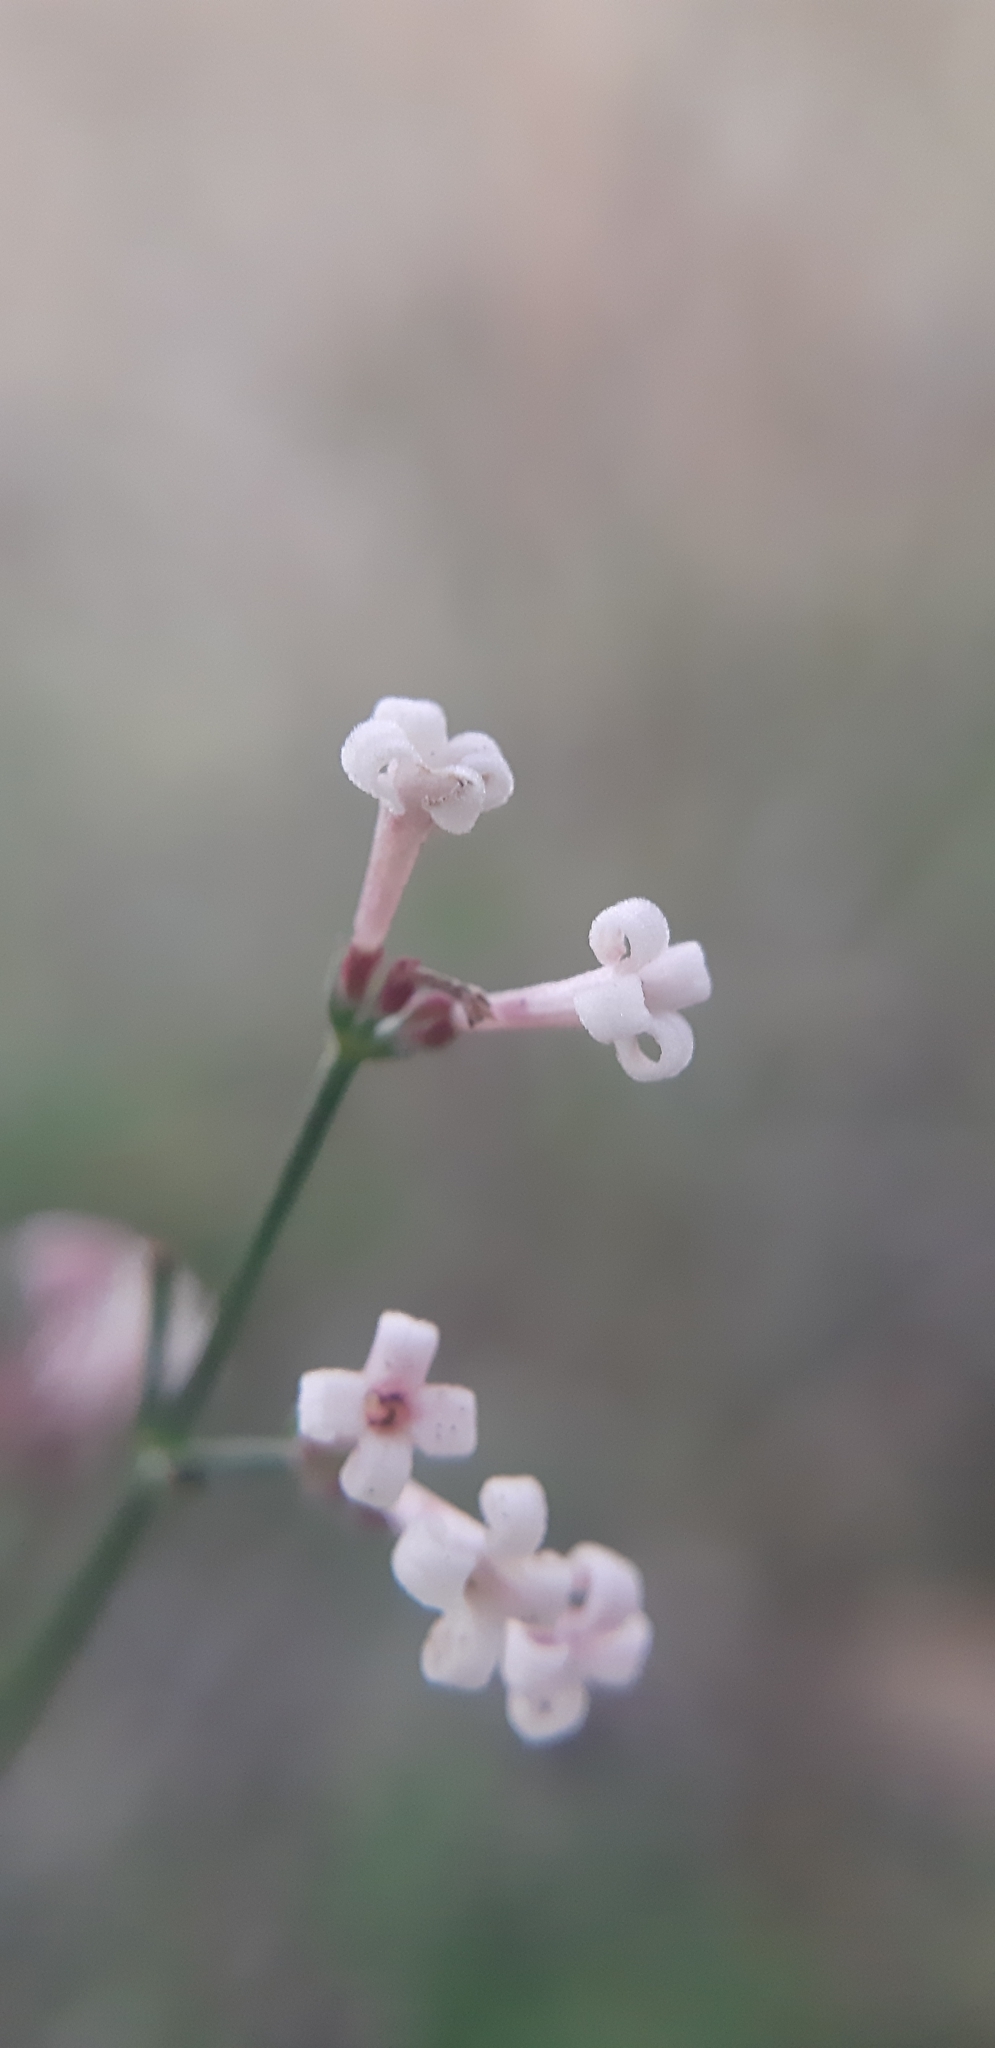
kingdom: Plantae
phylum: Tracheophyta
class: Magnoliopsida
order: Gentianales
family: Rubiaceae
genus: Cynanchica
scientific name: Cynanchica aristata
